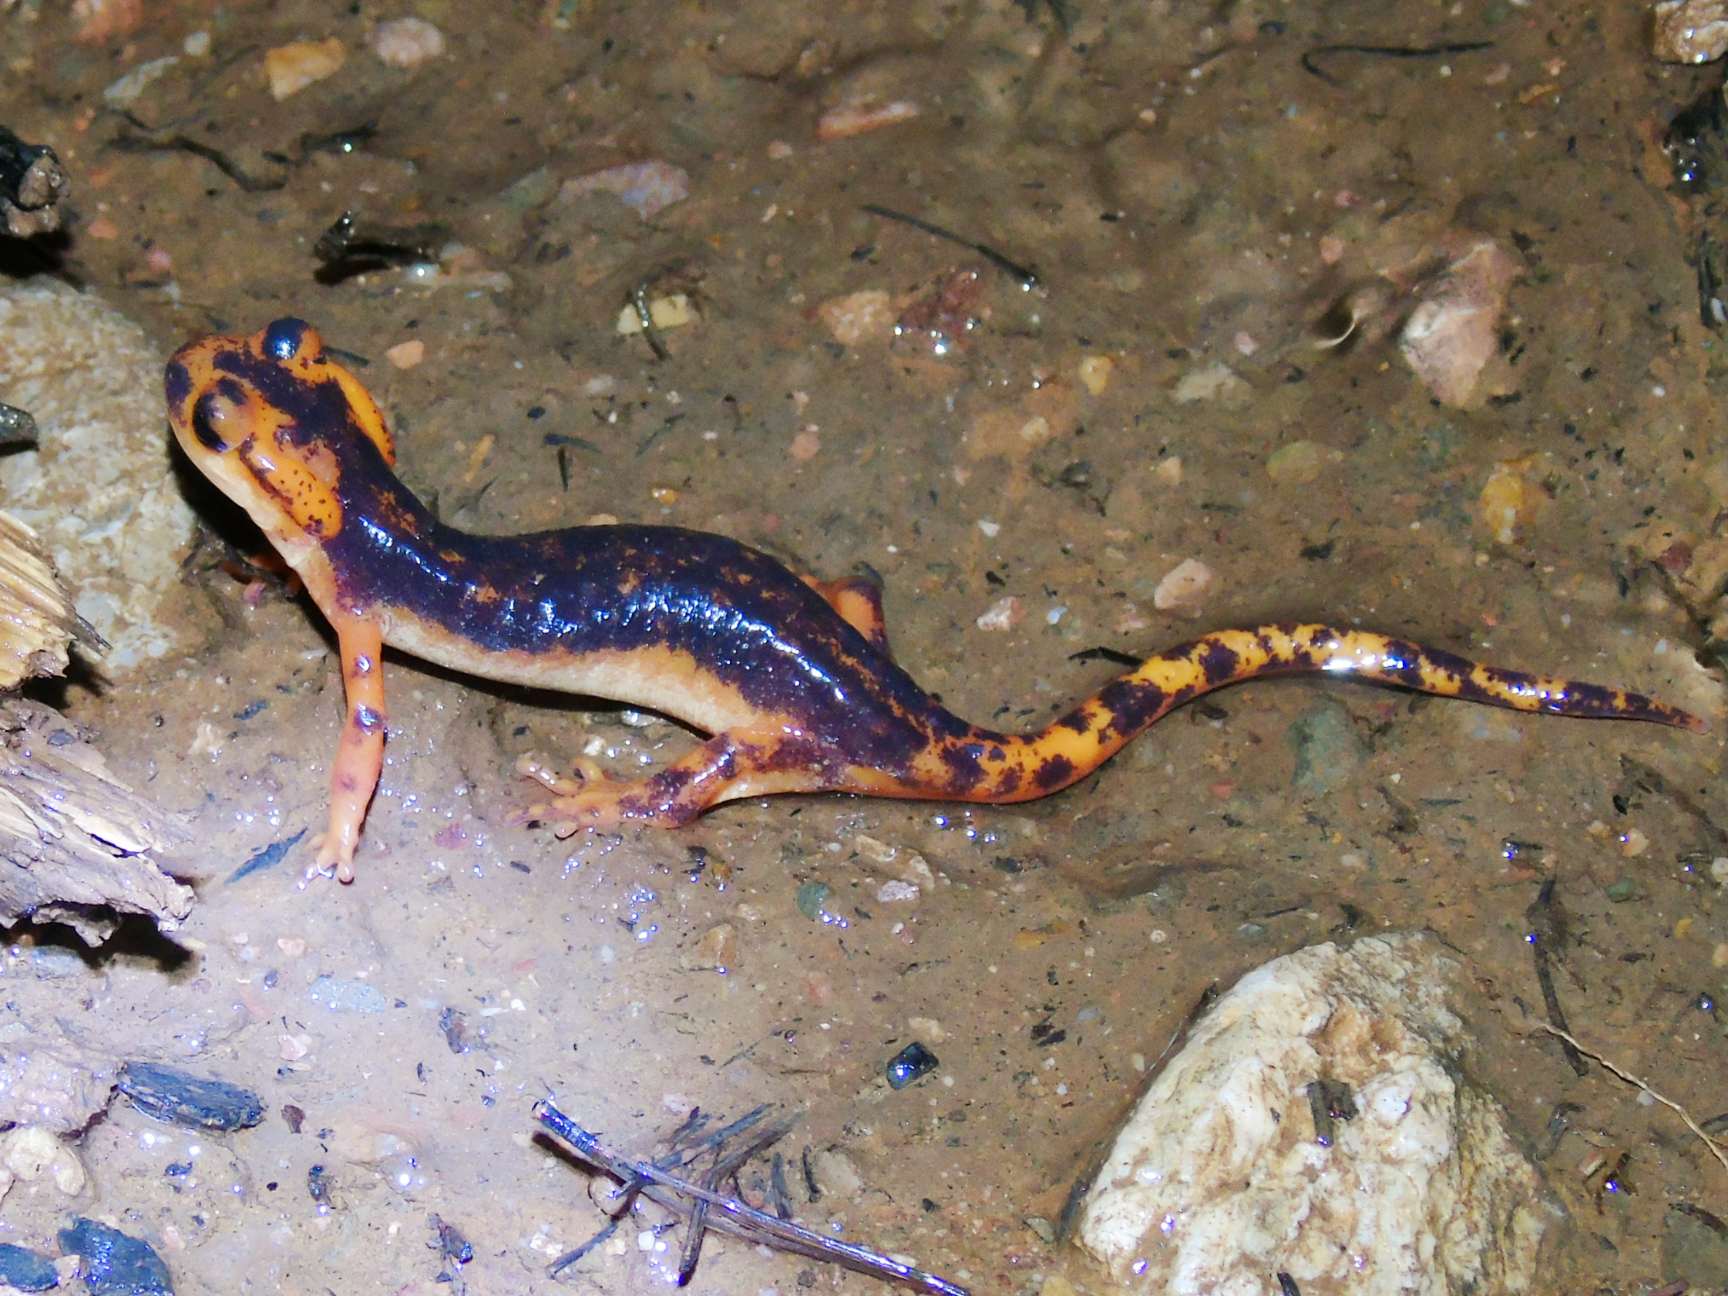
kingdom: Animalia
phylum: Chordata
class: Amphibia
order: Caudata
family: Salamandridae
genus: Lyciasalamandra
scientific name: Lyciasalamandra fazilae
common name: Fazila's salamander
